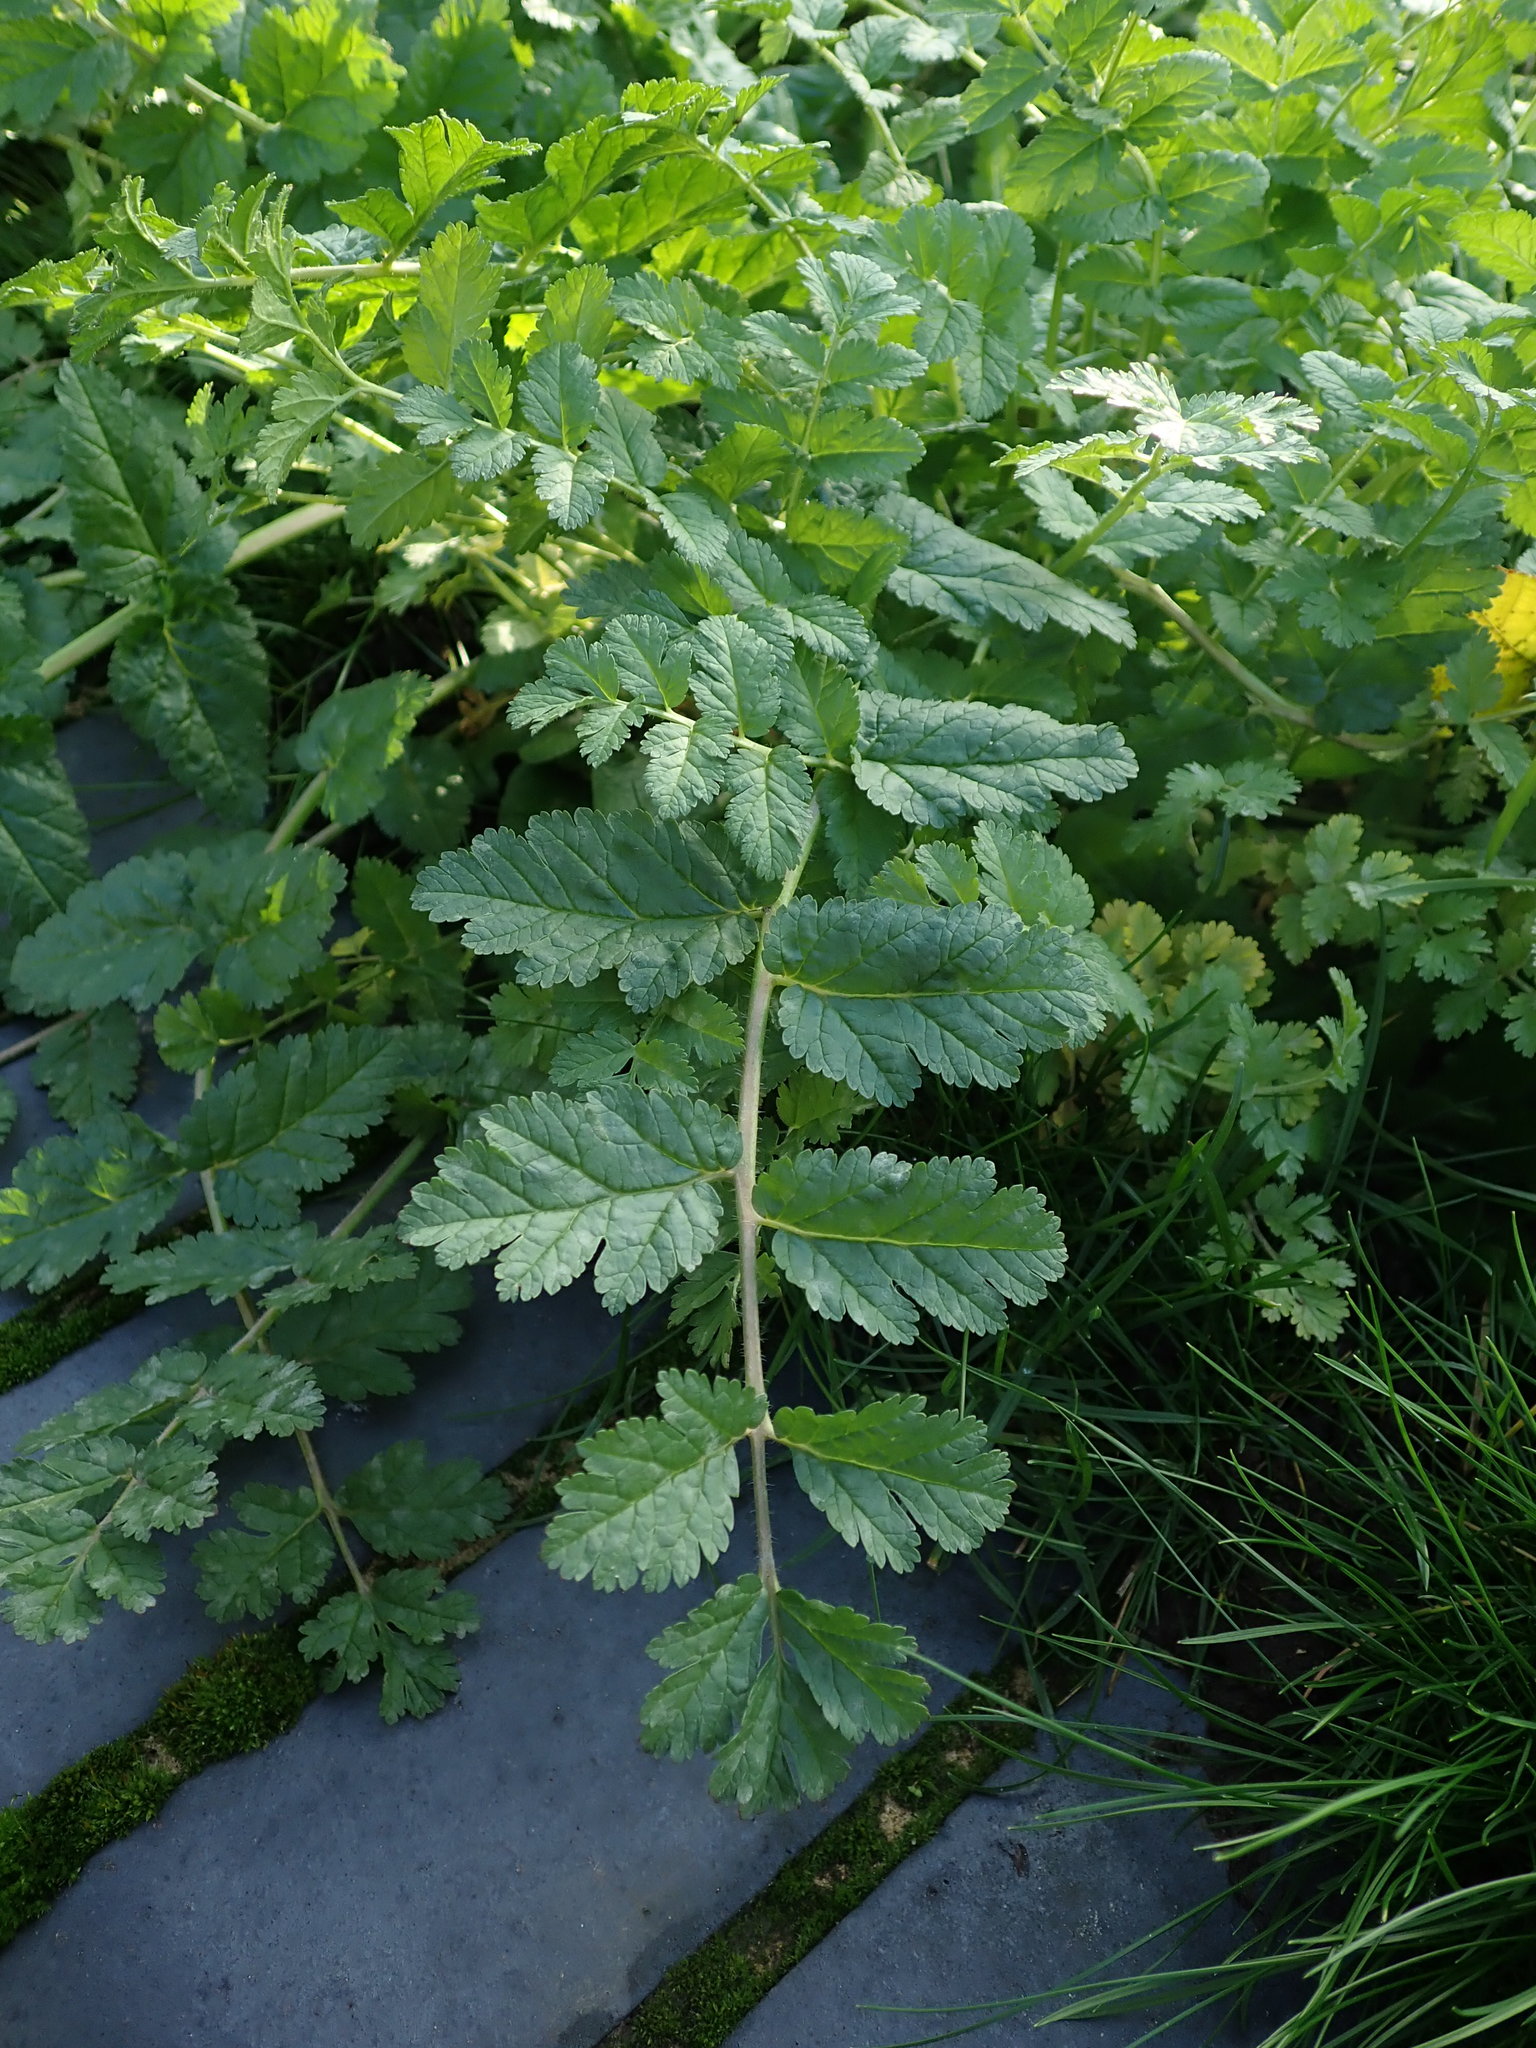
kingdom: Plantae
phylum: Tracheophyta
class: Magnoliopsida
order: Geraniales
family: Geraniaceae
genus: Erodium
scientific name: Erodium moschatum
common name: Musk stork's-bill
